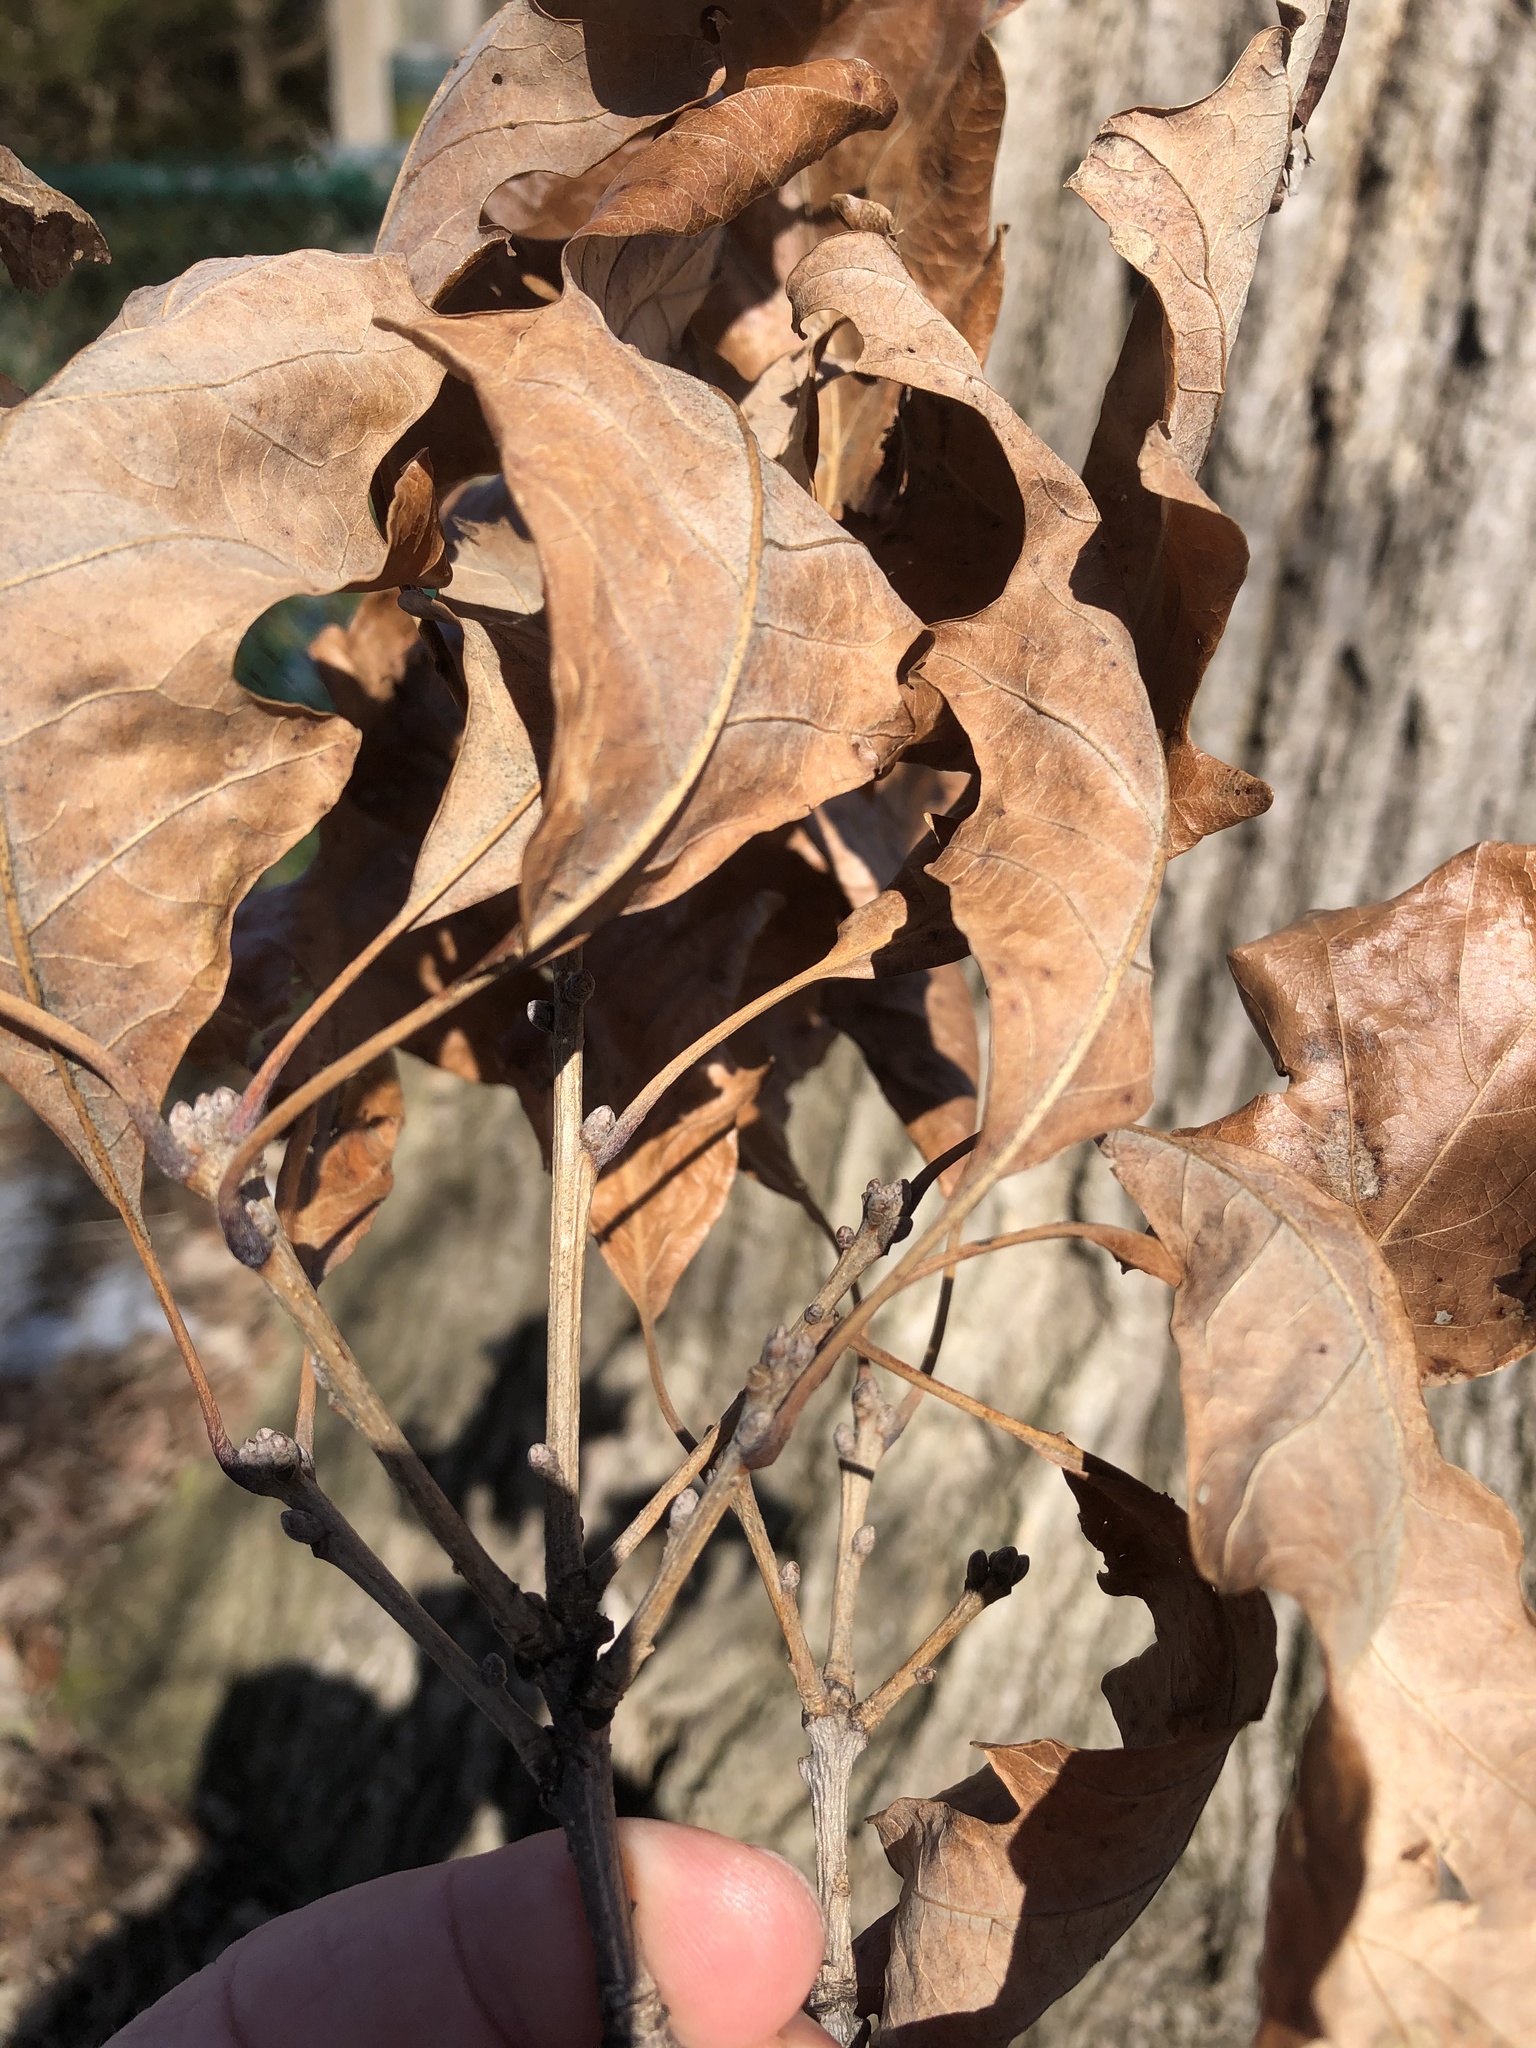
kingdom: Plantae
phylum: Tracheophyta
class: Magnoliopsida
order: Fagales
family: Fagaceae
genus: Quercus
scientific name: Quercus bicolor
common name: Swamp white oak
